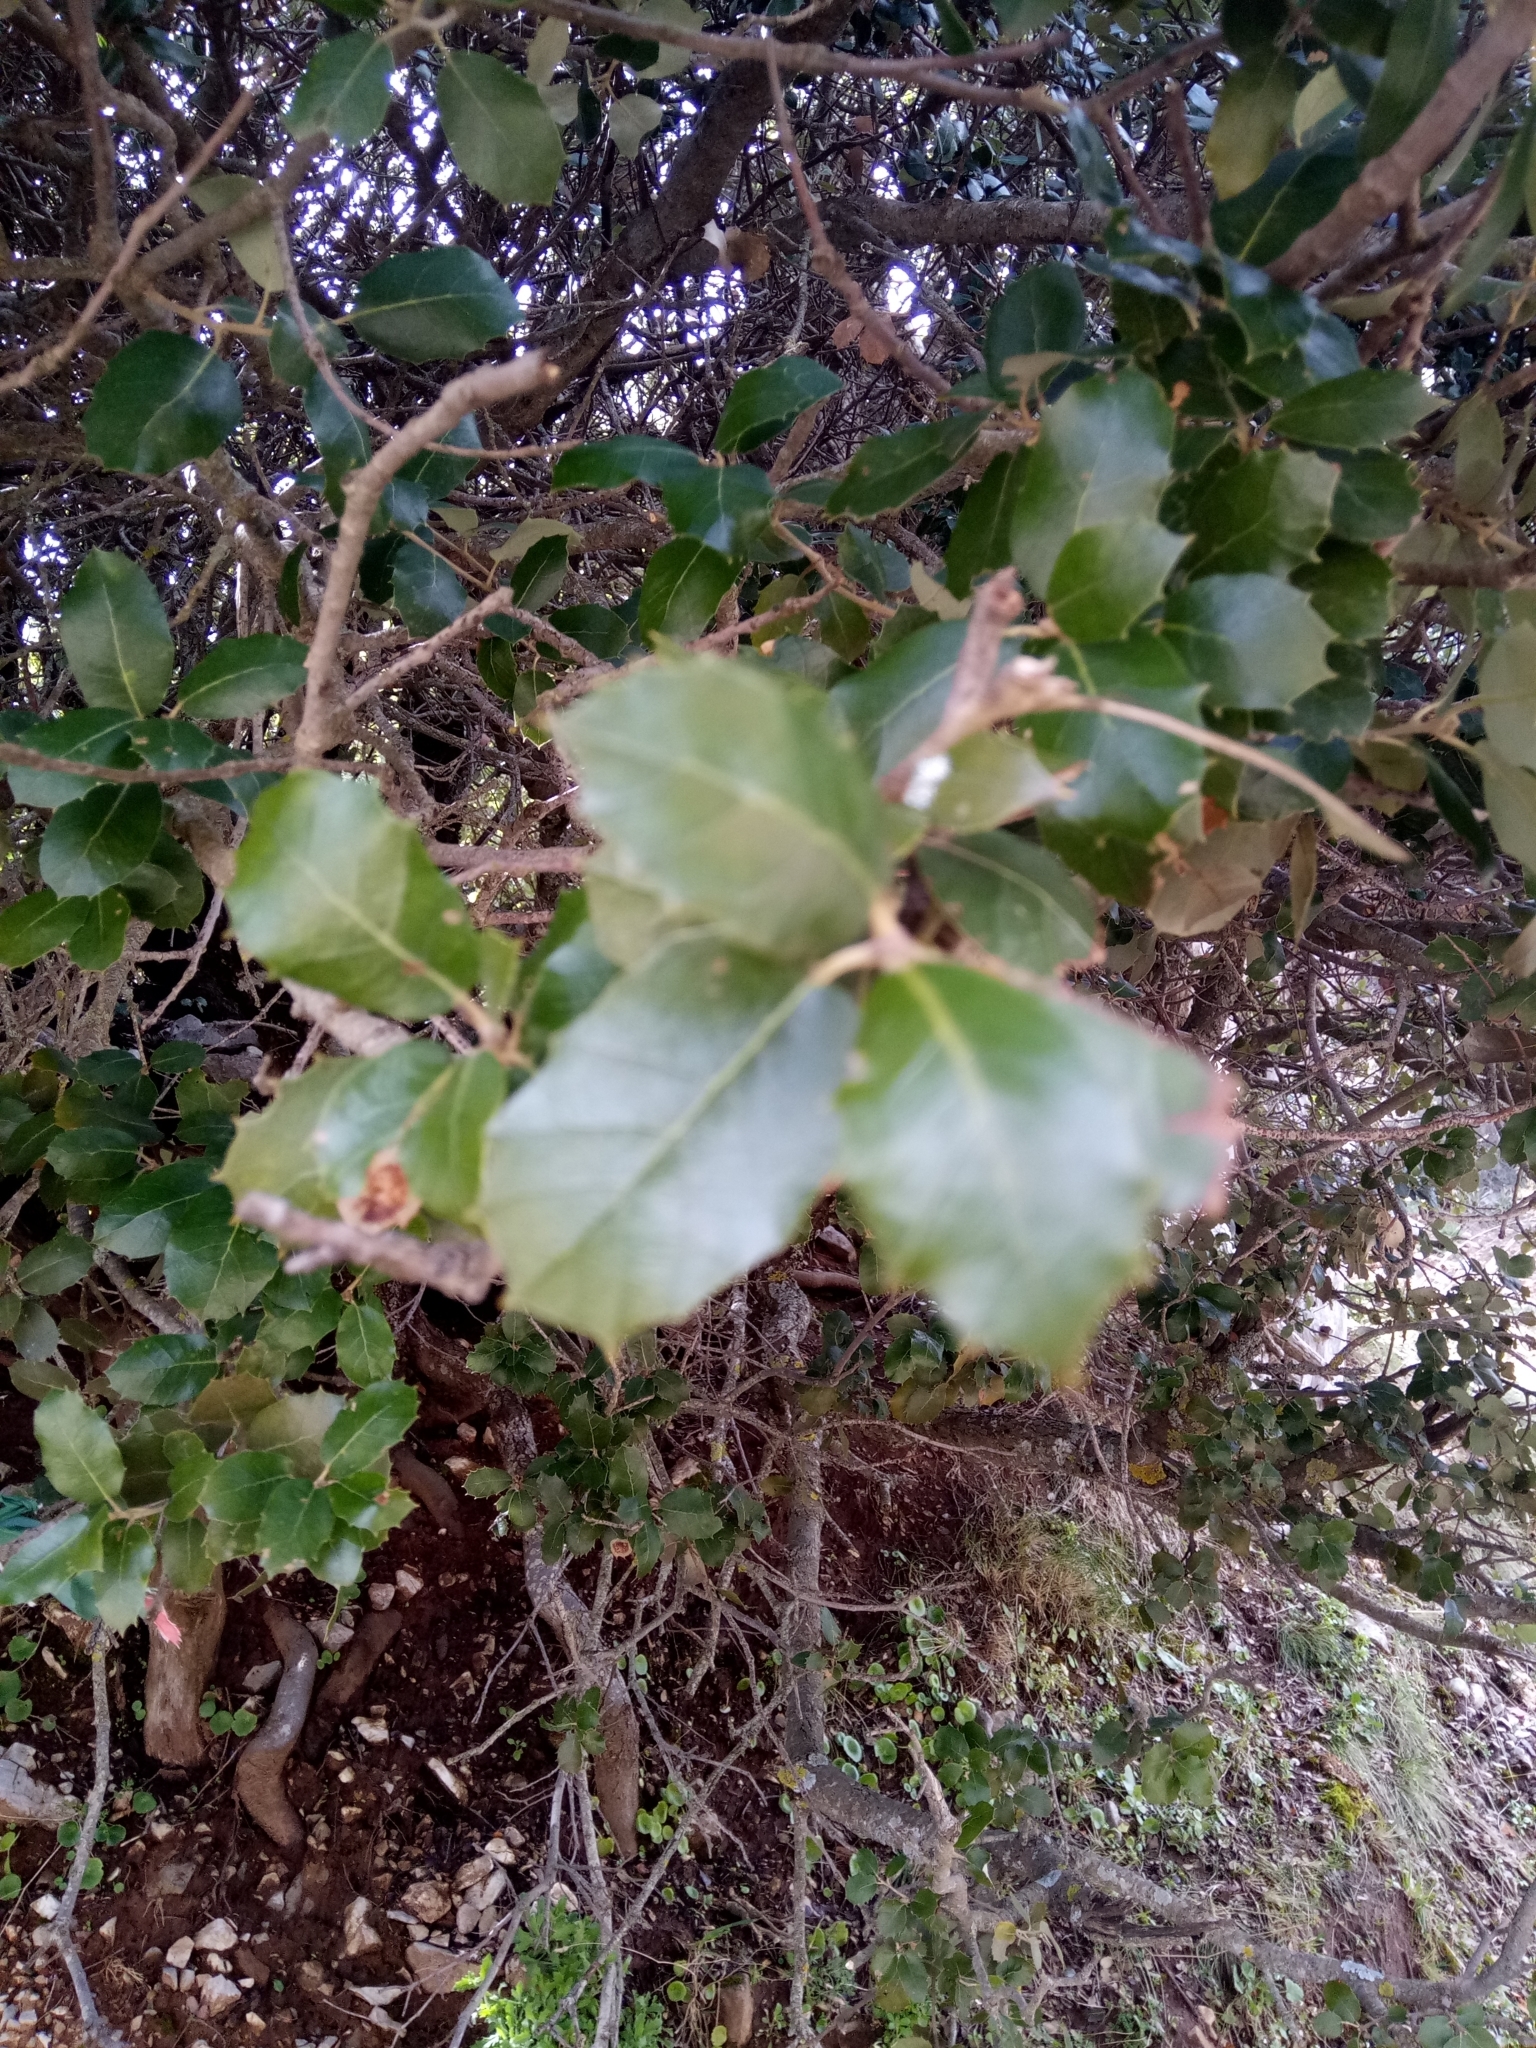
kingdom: Plantae
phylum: Tracheophyta
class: Magnoliopsida
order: Fagales
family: Fagaceae
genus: Quercus
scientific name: Quercus rotundifolia
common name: Holm oak
